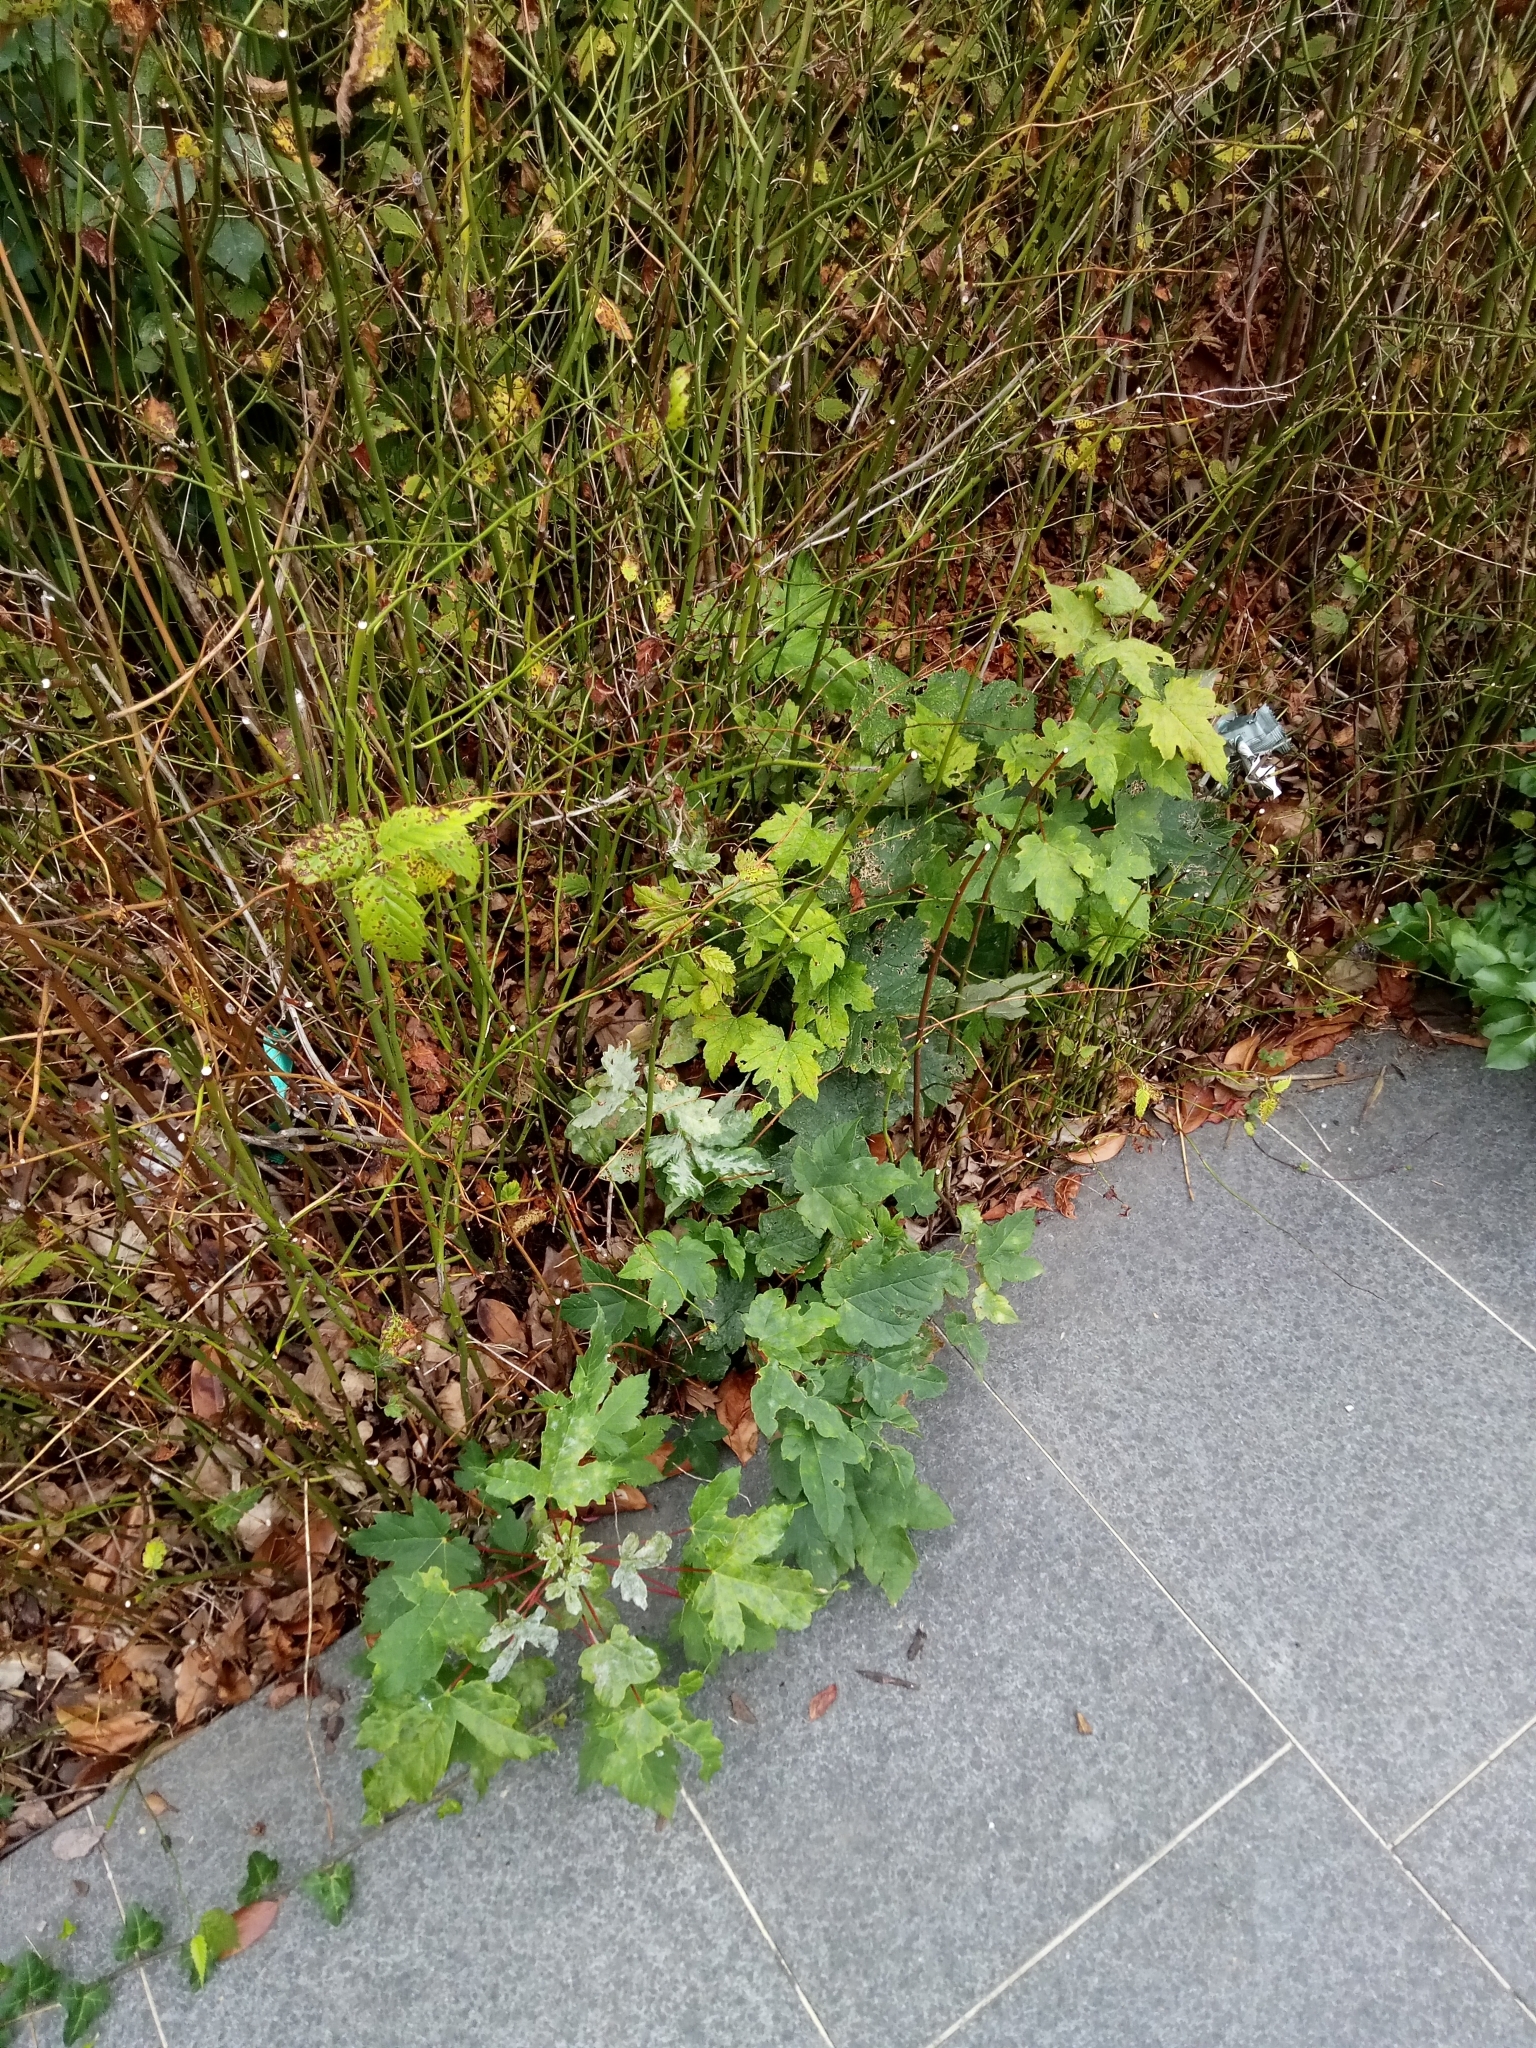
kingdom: Plantae
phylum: Tracheophyta
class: Magnoliopsida
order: Sapindales
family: Sapindaceae
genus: Acer
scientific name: Acer pseudoplatanus
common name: Sycamore
